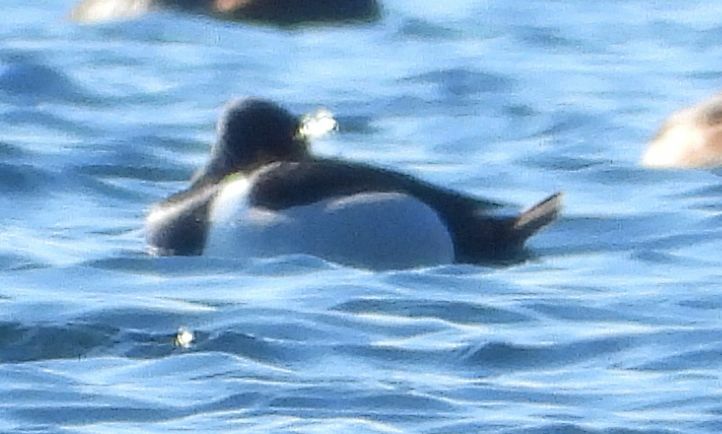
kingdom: Animalia
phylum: Chordata
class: Aves
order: Anseriformes
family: Anatidae
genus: Aythya
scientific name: Aythya collaris
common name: Ring-necked duck
